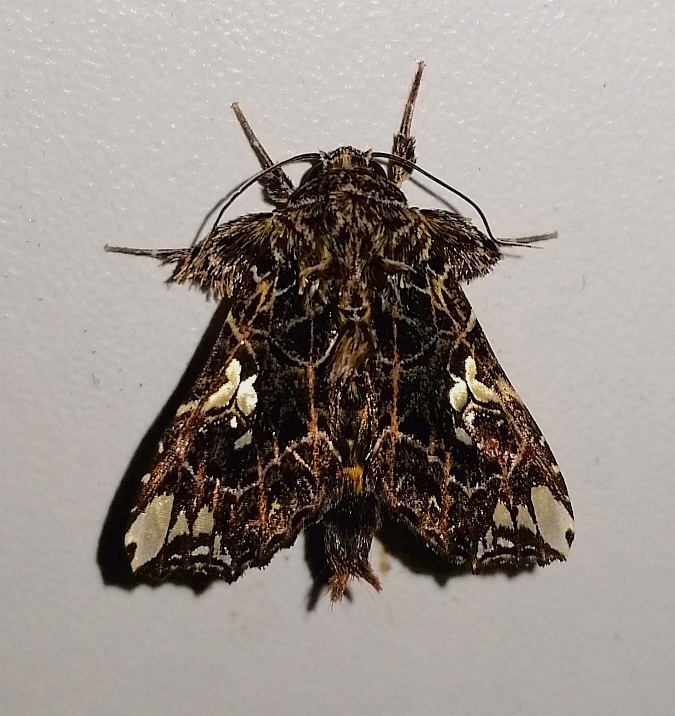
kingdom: Animalia
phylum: Arthropoda
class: Insecta
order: Lepidoptera
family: Noctuidae
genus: Argyrosticta
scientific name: Argyrosticta meres
